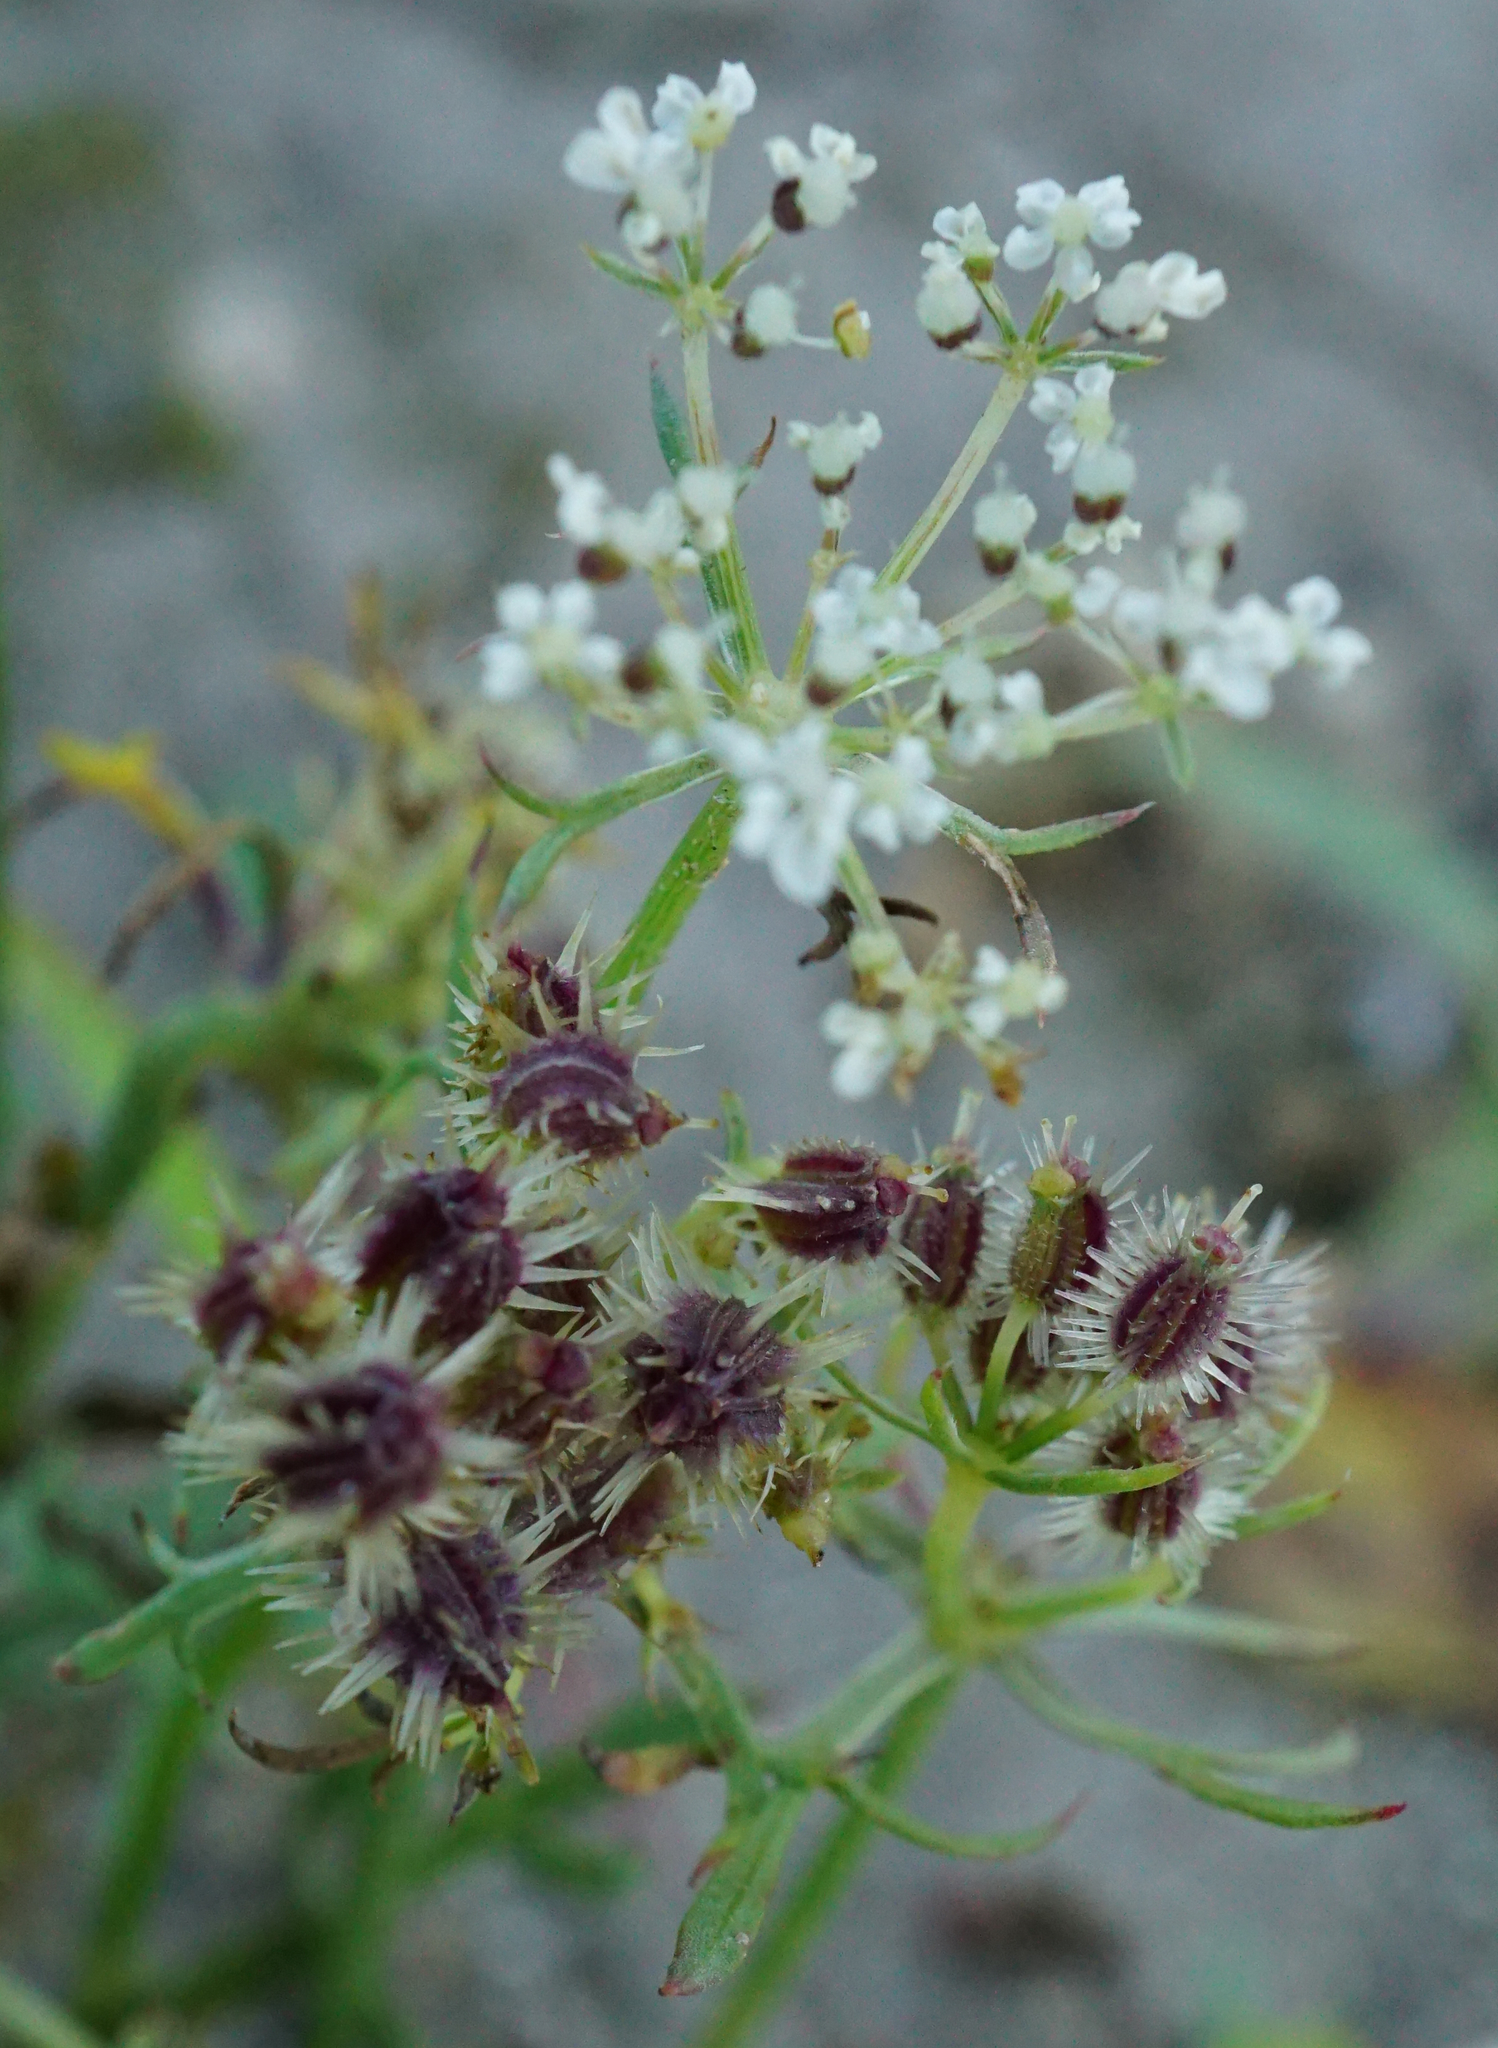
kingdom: Plantae
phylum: Tracheophyta
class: Magnoliopsida
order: Apiales
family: Apiaceae
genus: Daucus
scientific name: Daucus carota
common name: Wild carrot
